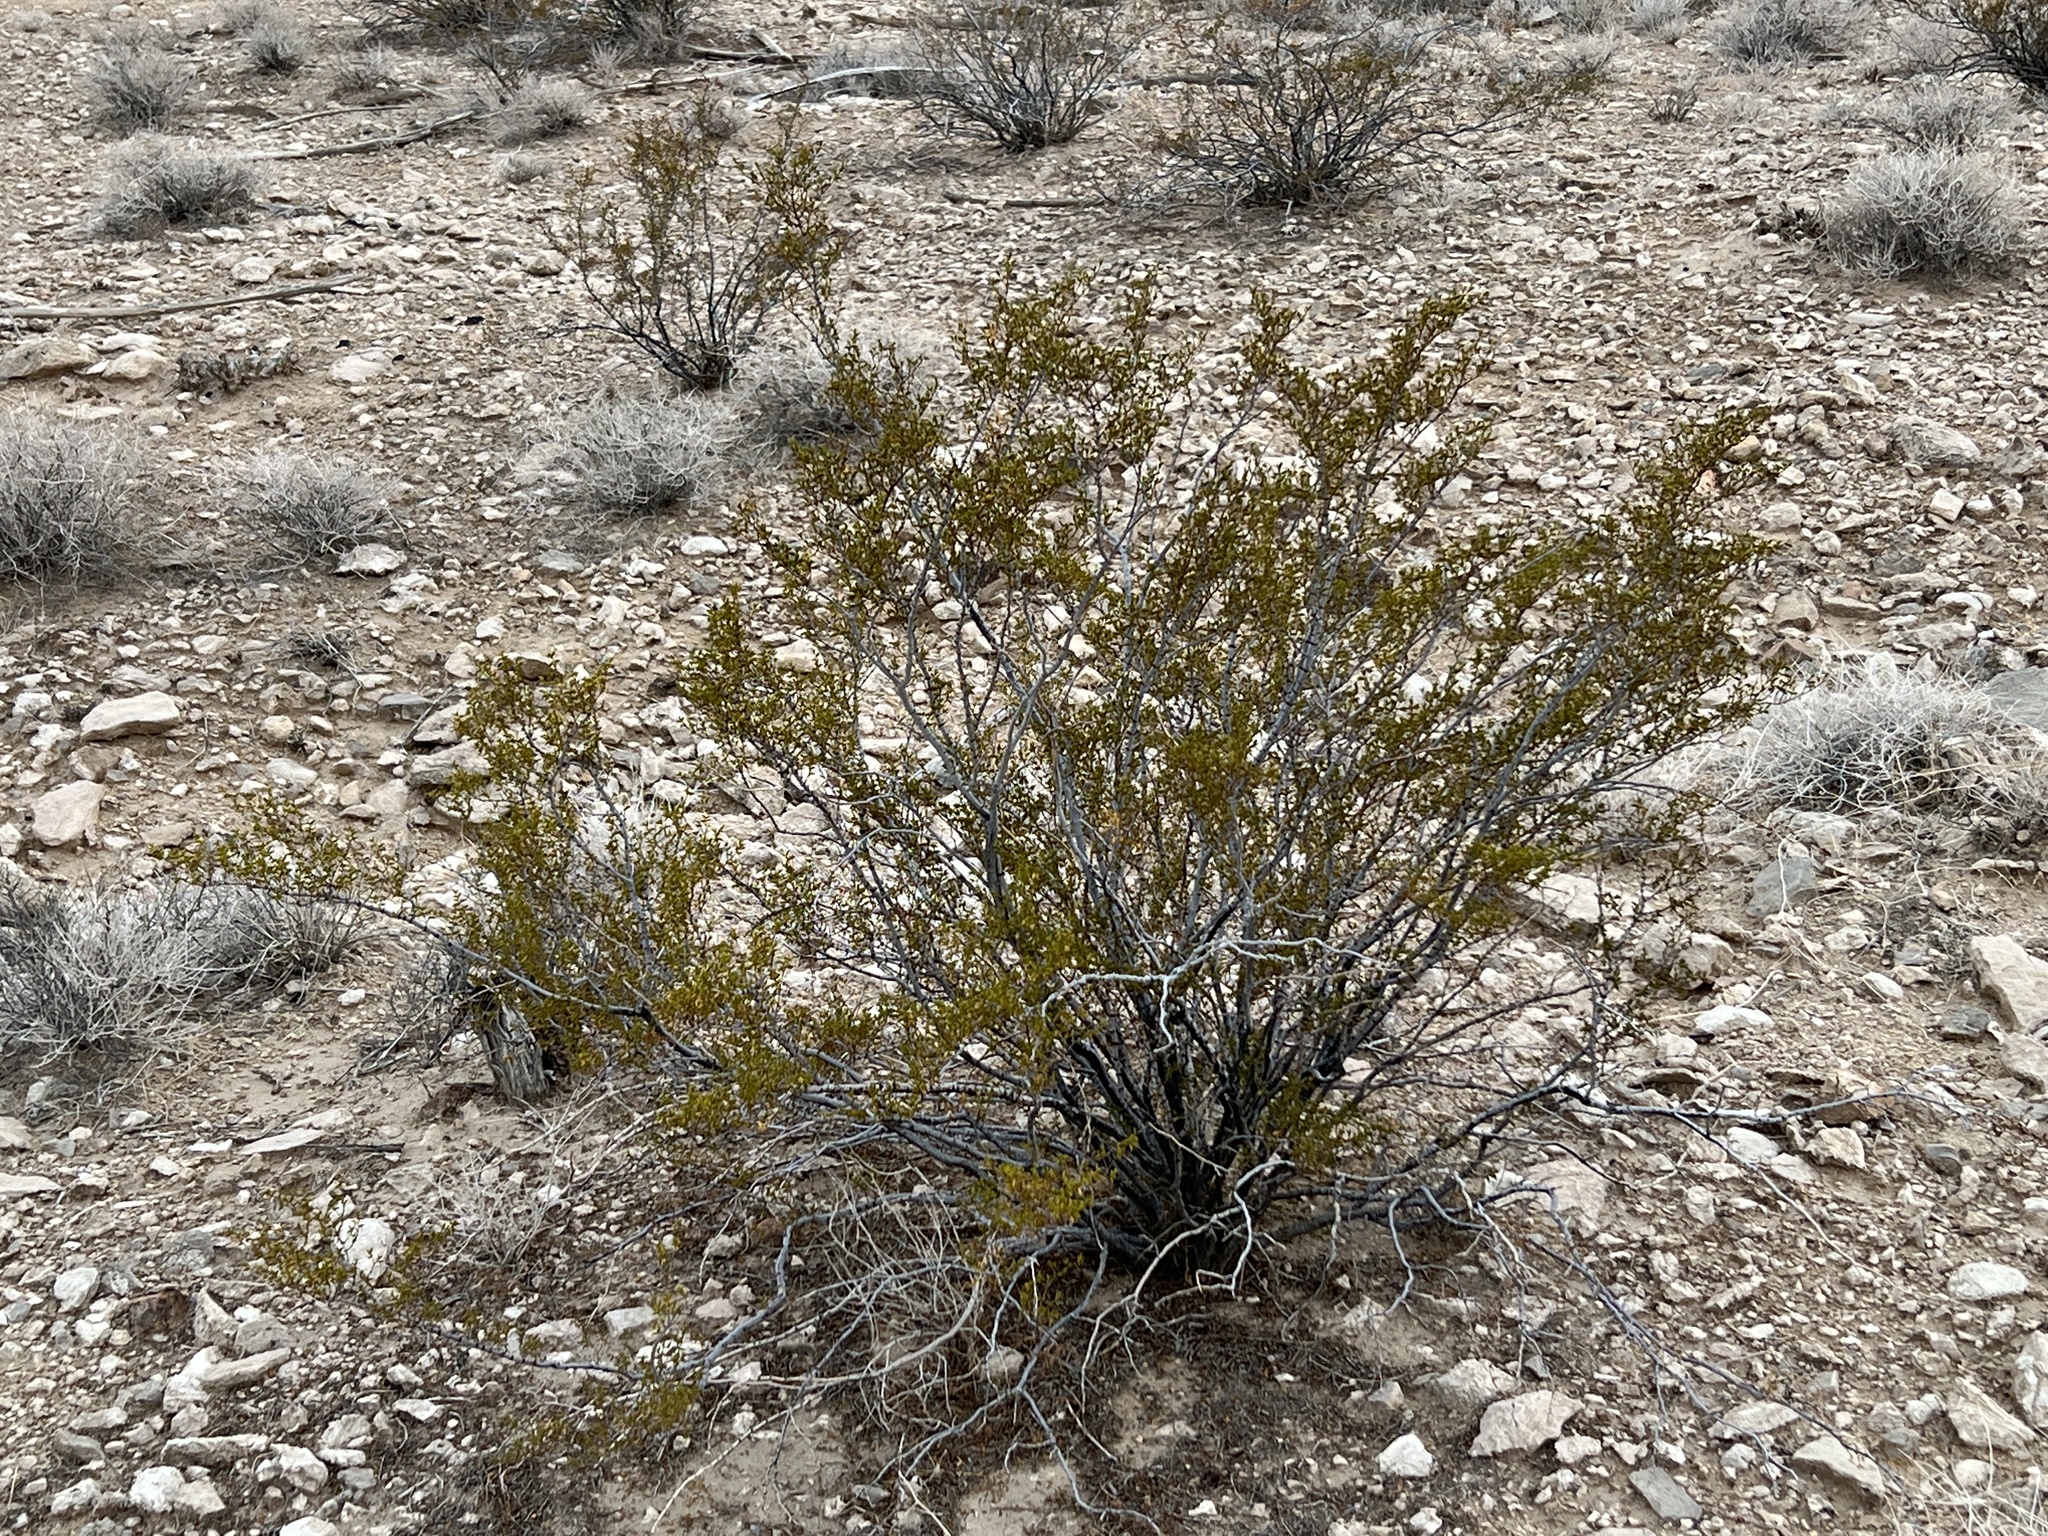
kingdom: Plantae
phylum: Tracheophyta
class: Magnoliopsida
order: Zygophyllales
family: Zygophyllaceae
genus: Larrea
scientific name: Larrea tridentata
